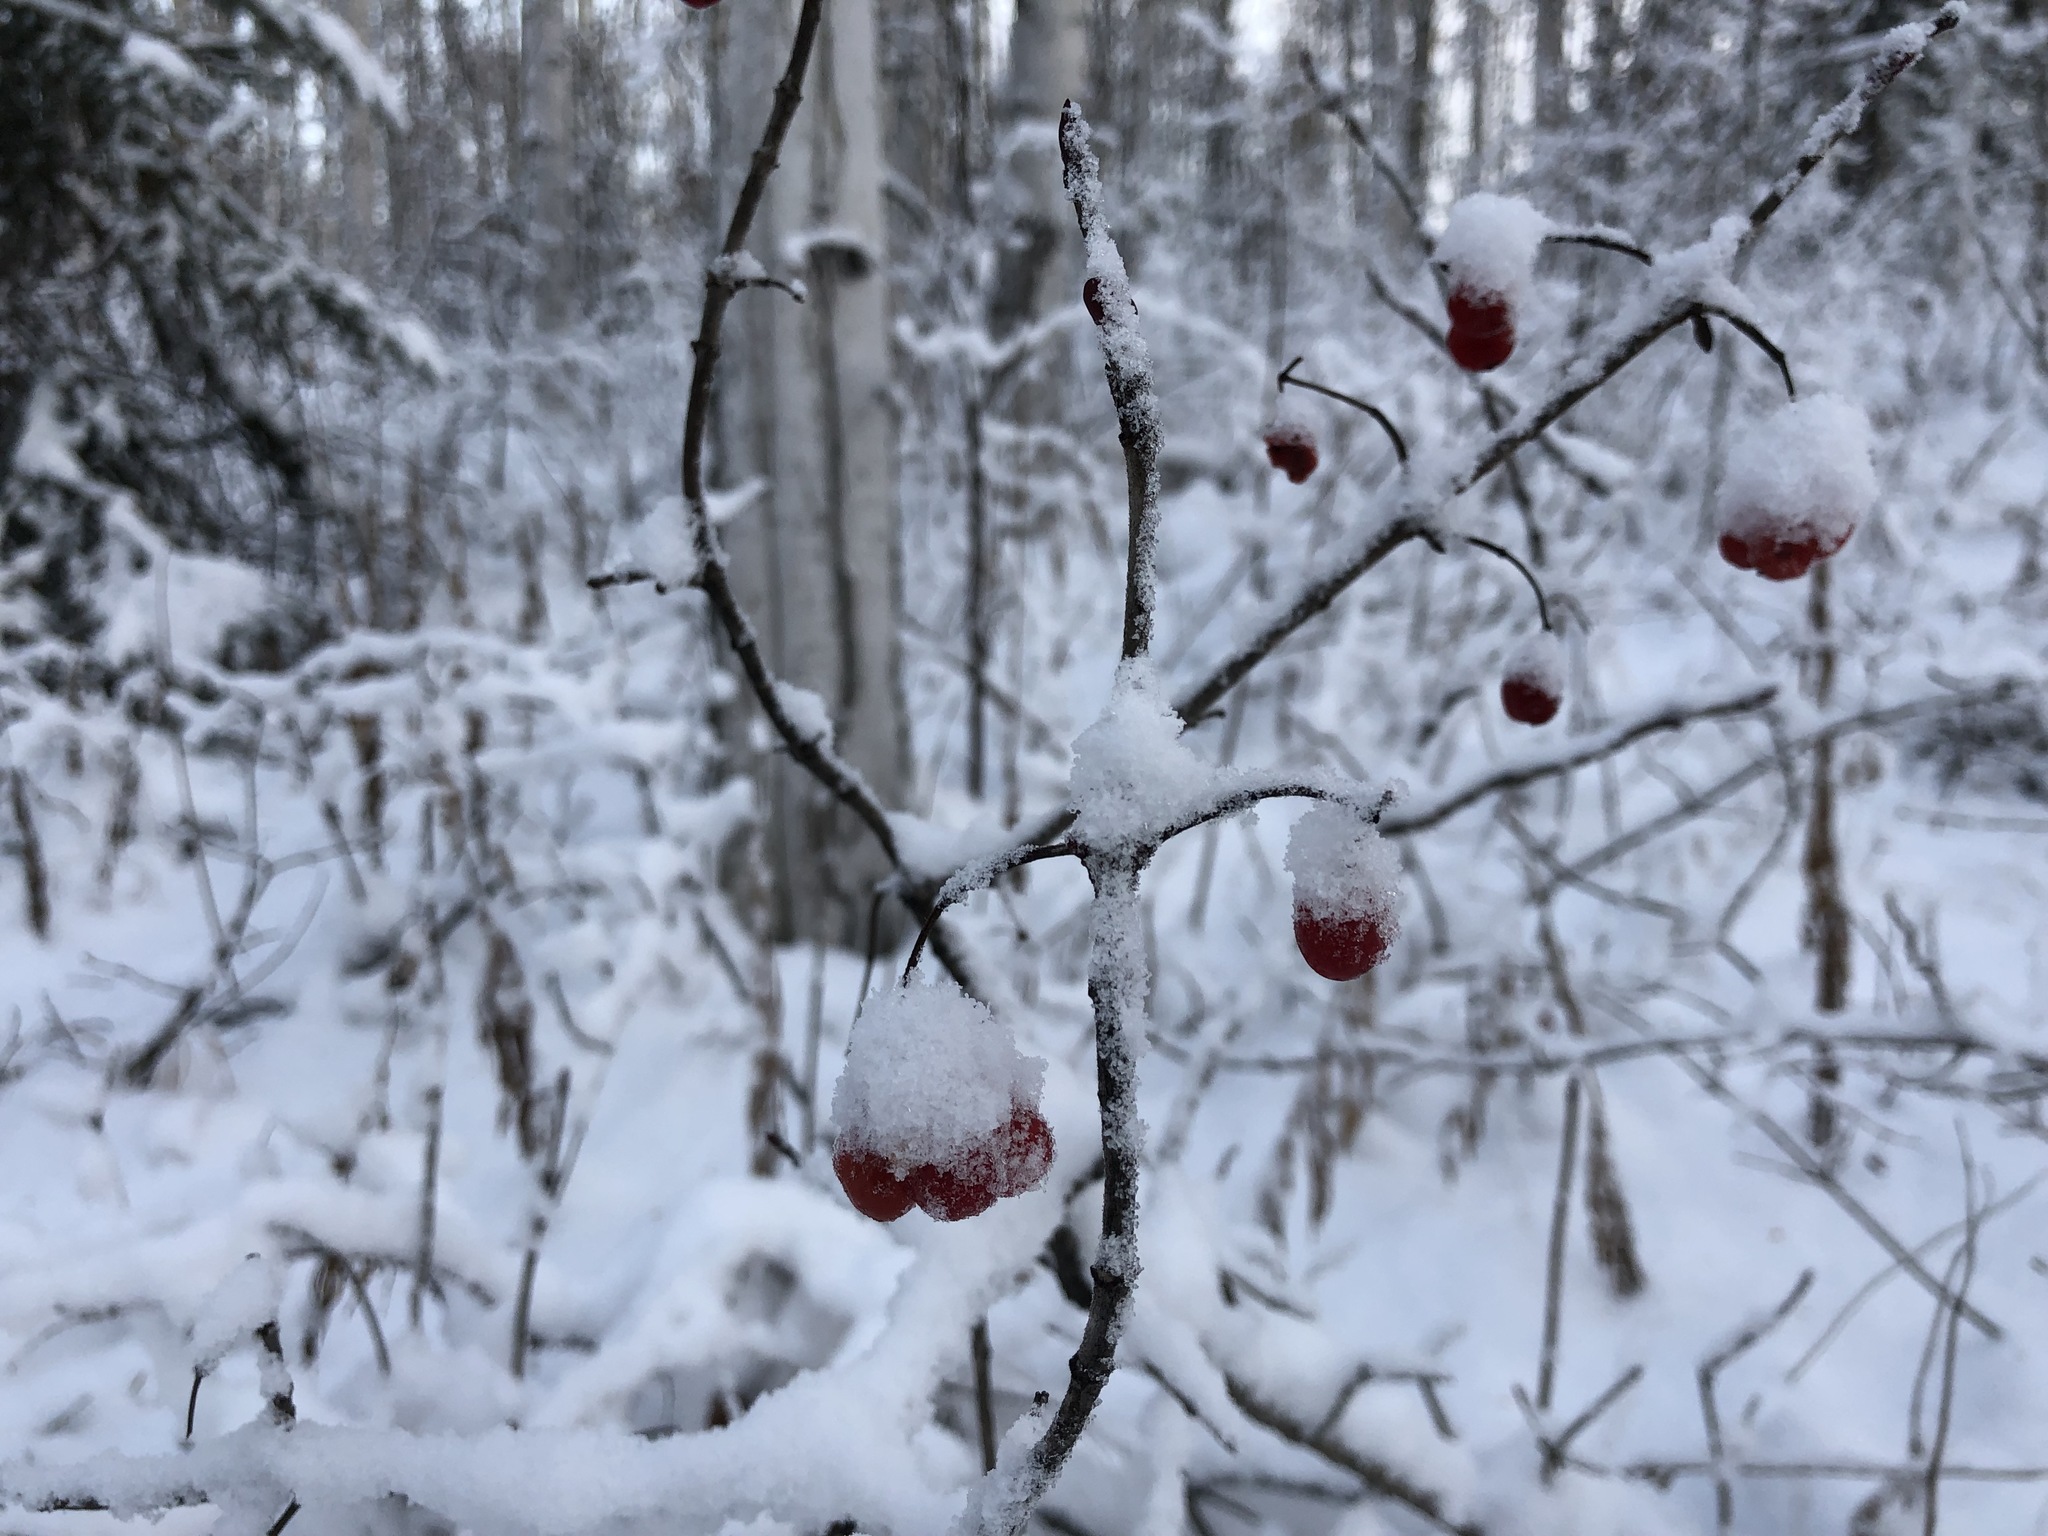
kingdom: Plantae
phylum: Tracheophyta
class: Magnoliopsida
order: Dipsacales
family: Viburnaceae
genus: Viburnum
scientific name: Viburnum edule
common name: Mooseberry
